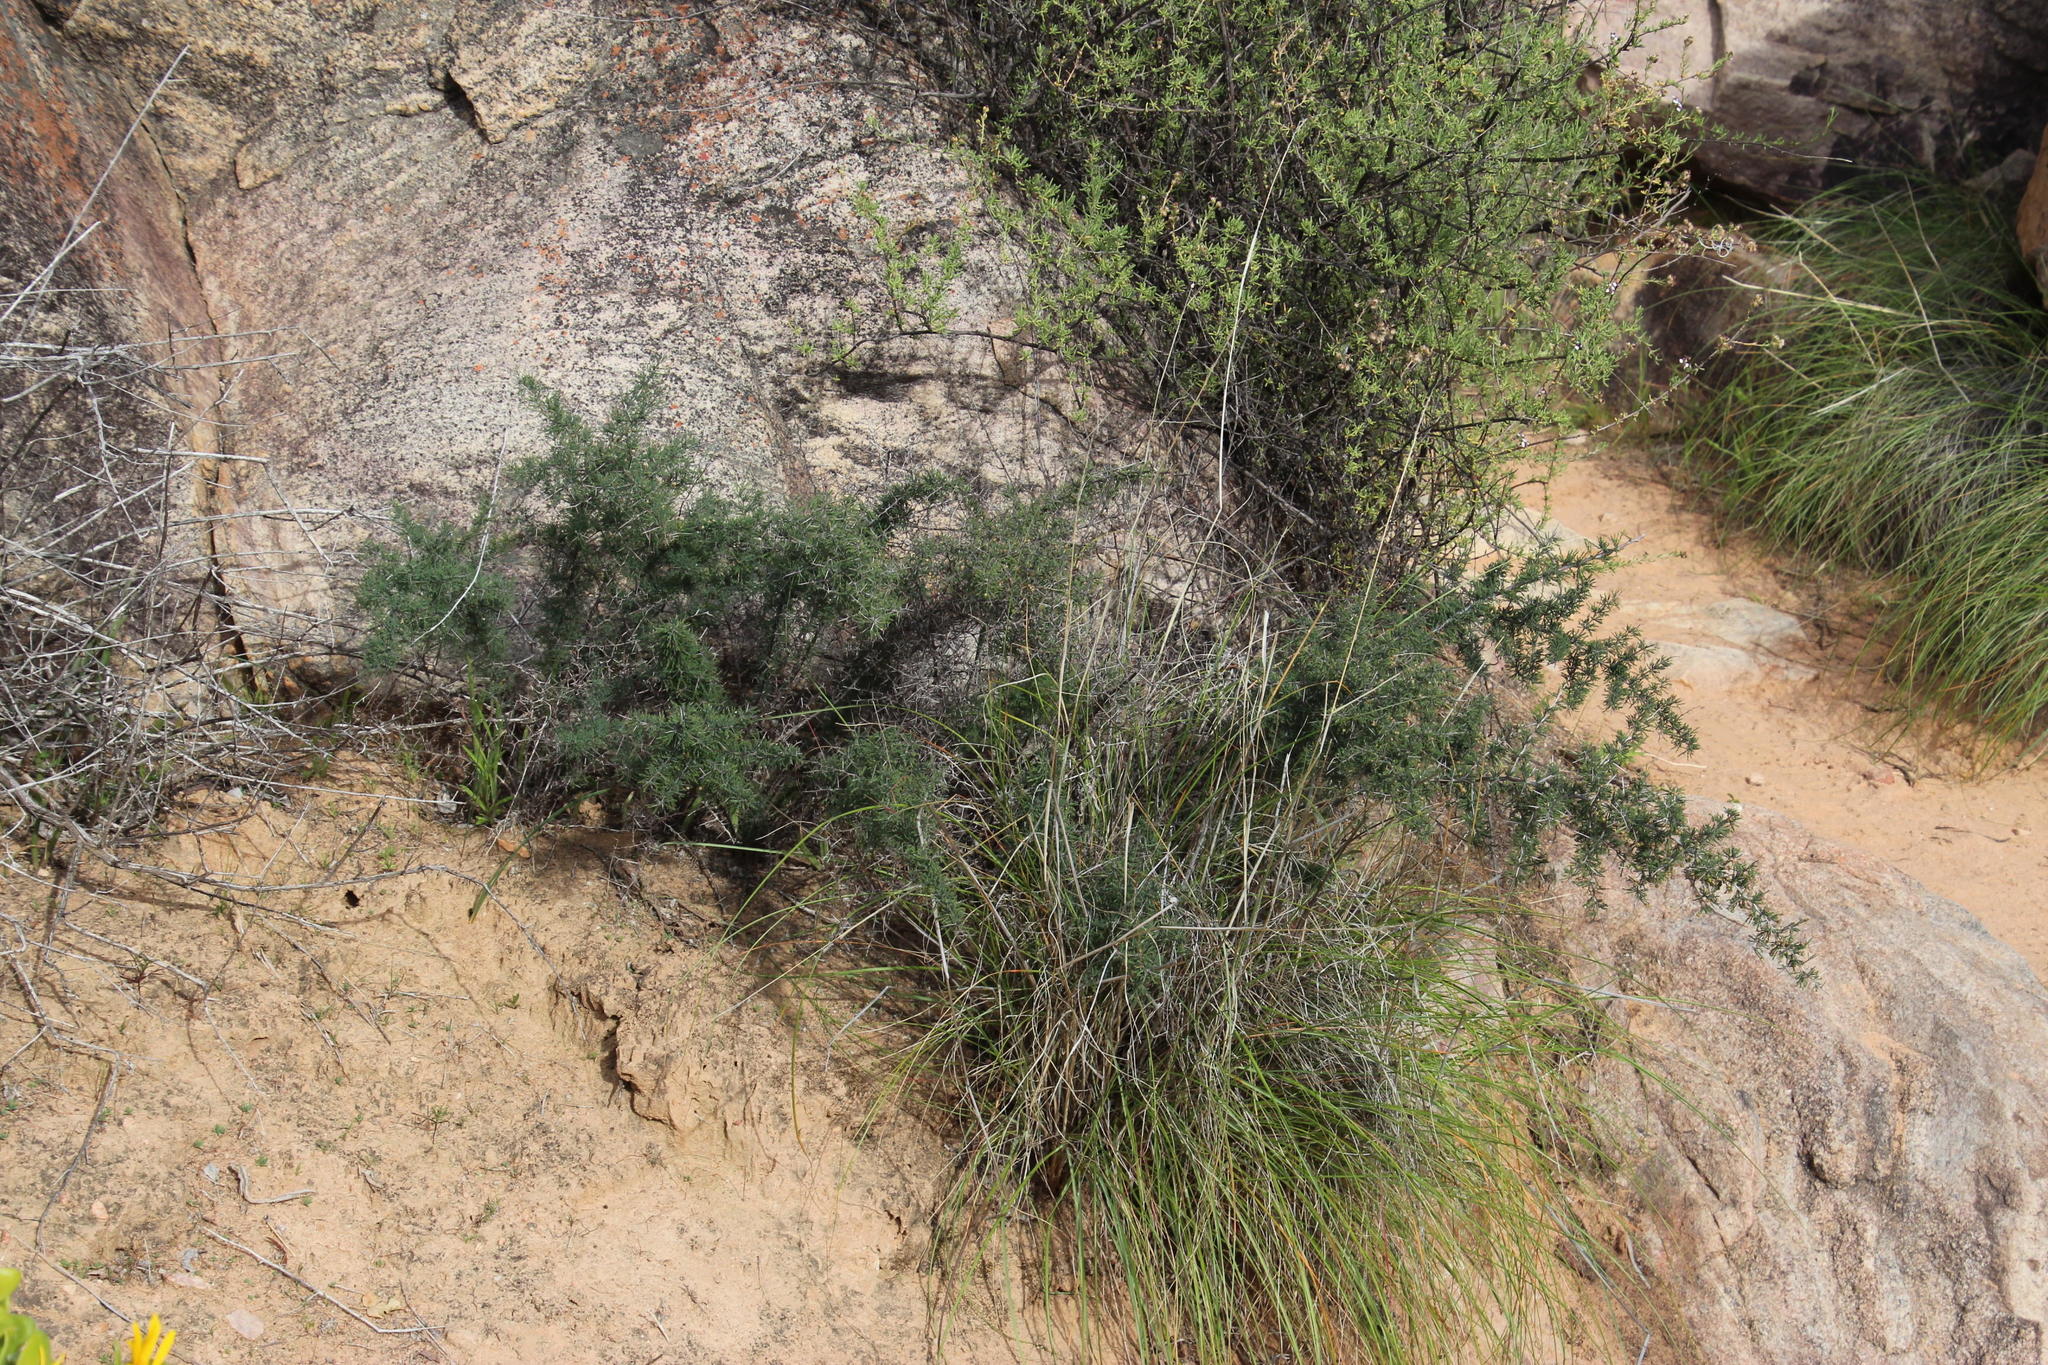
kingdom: Plantae
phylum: Tracheophyta
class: Liliopsida
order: Asparagales
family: Asparagaceae
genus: Asparagus
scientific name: Asparagus capensis
